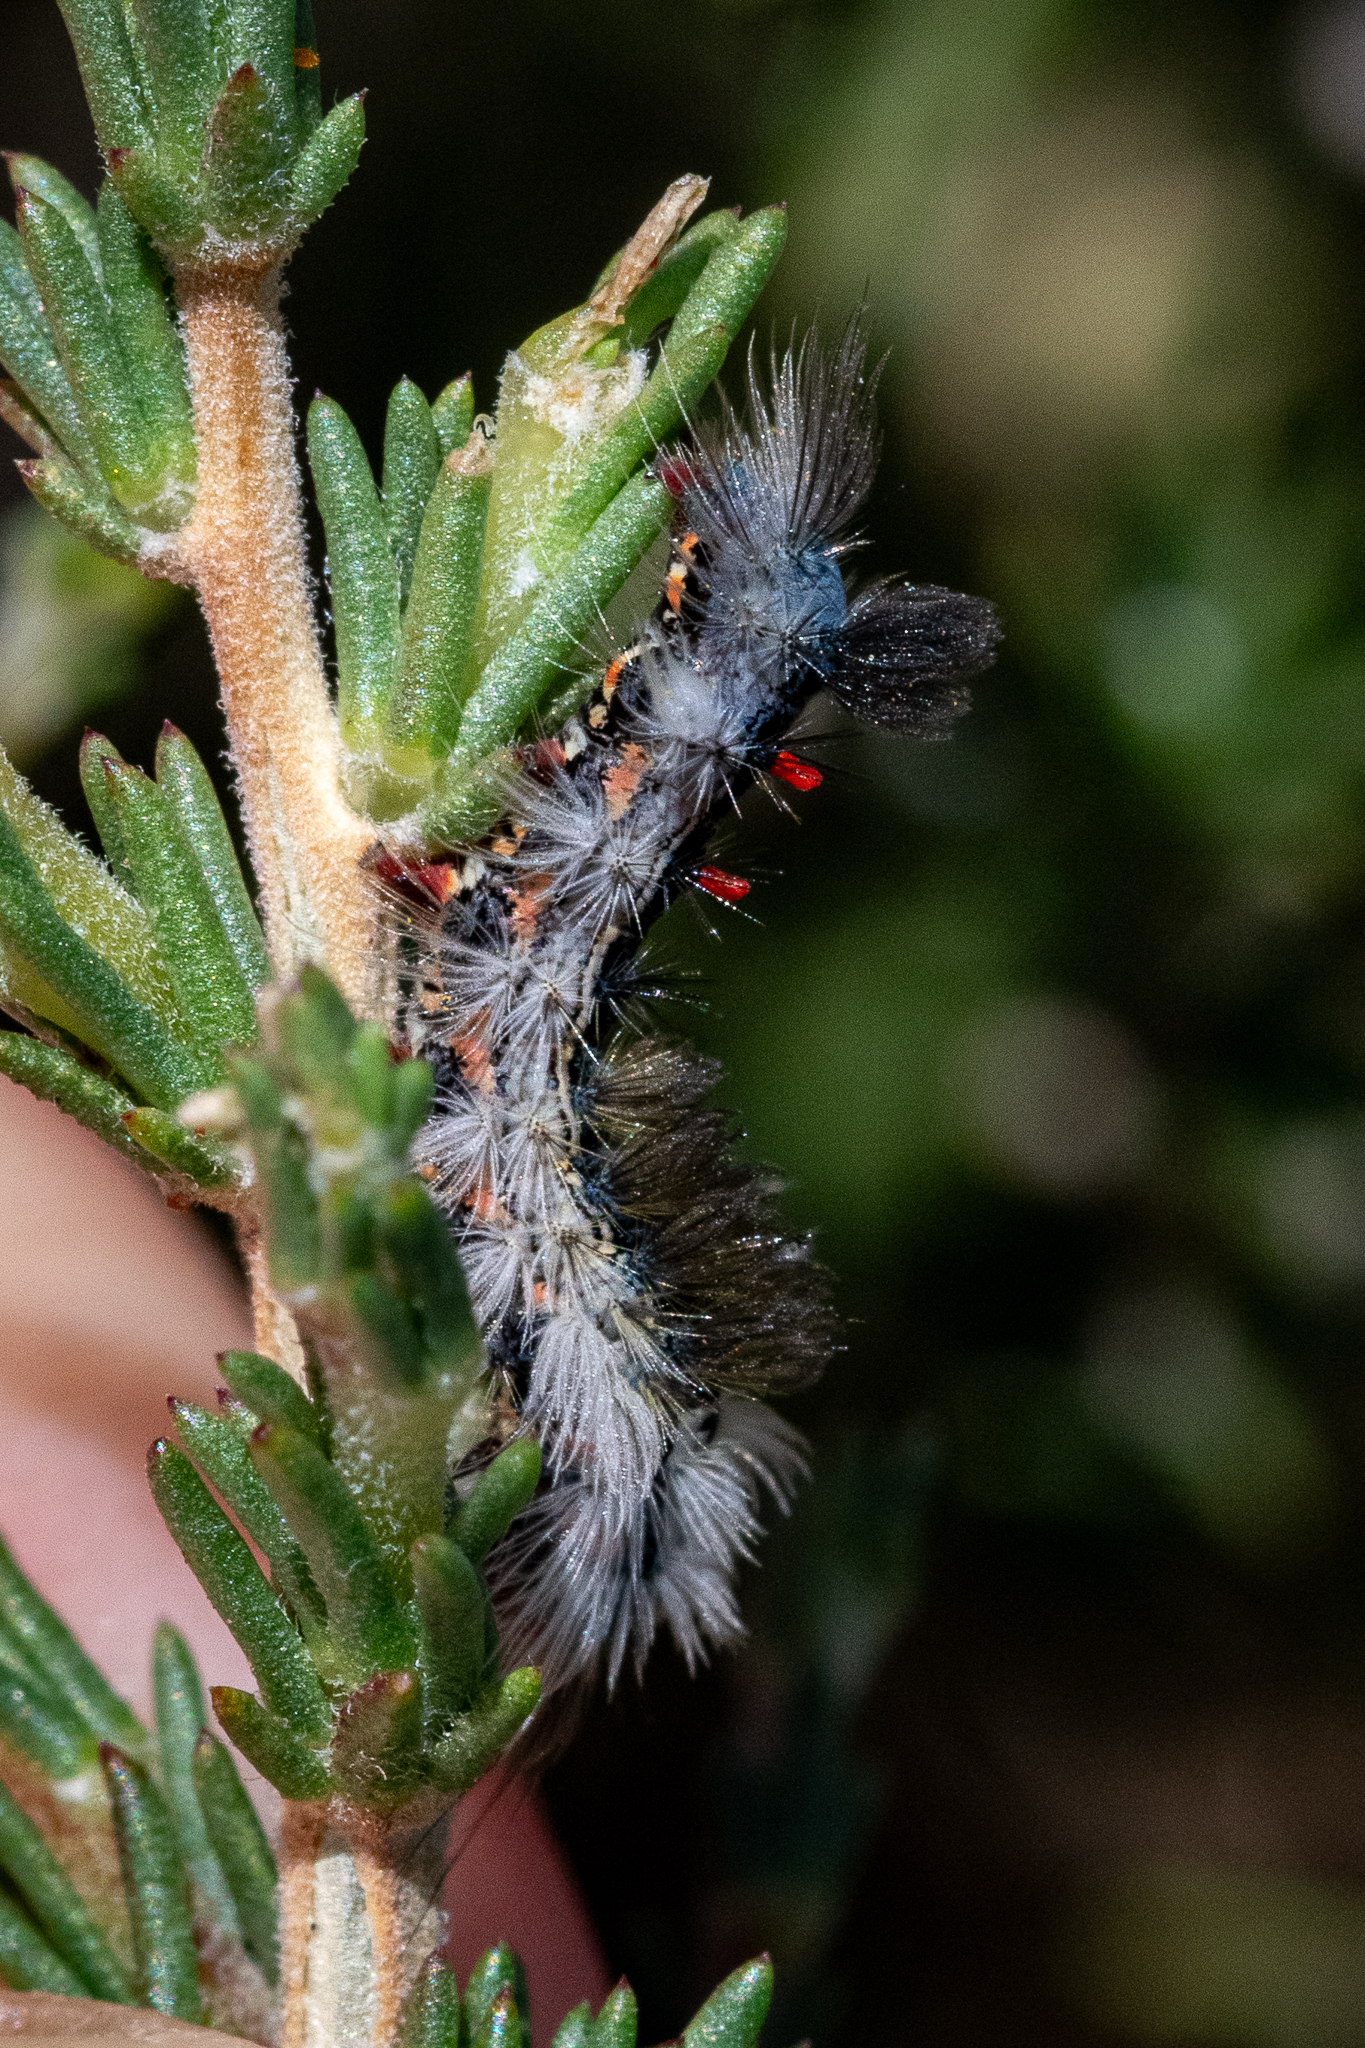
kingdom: Animalia
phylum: Arthropoda
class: Insecta
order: Lepidoptera
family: Erebidae
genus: Bracharoa
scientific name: Bracharoa dregei
